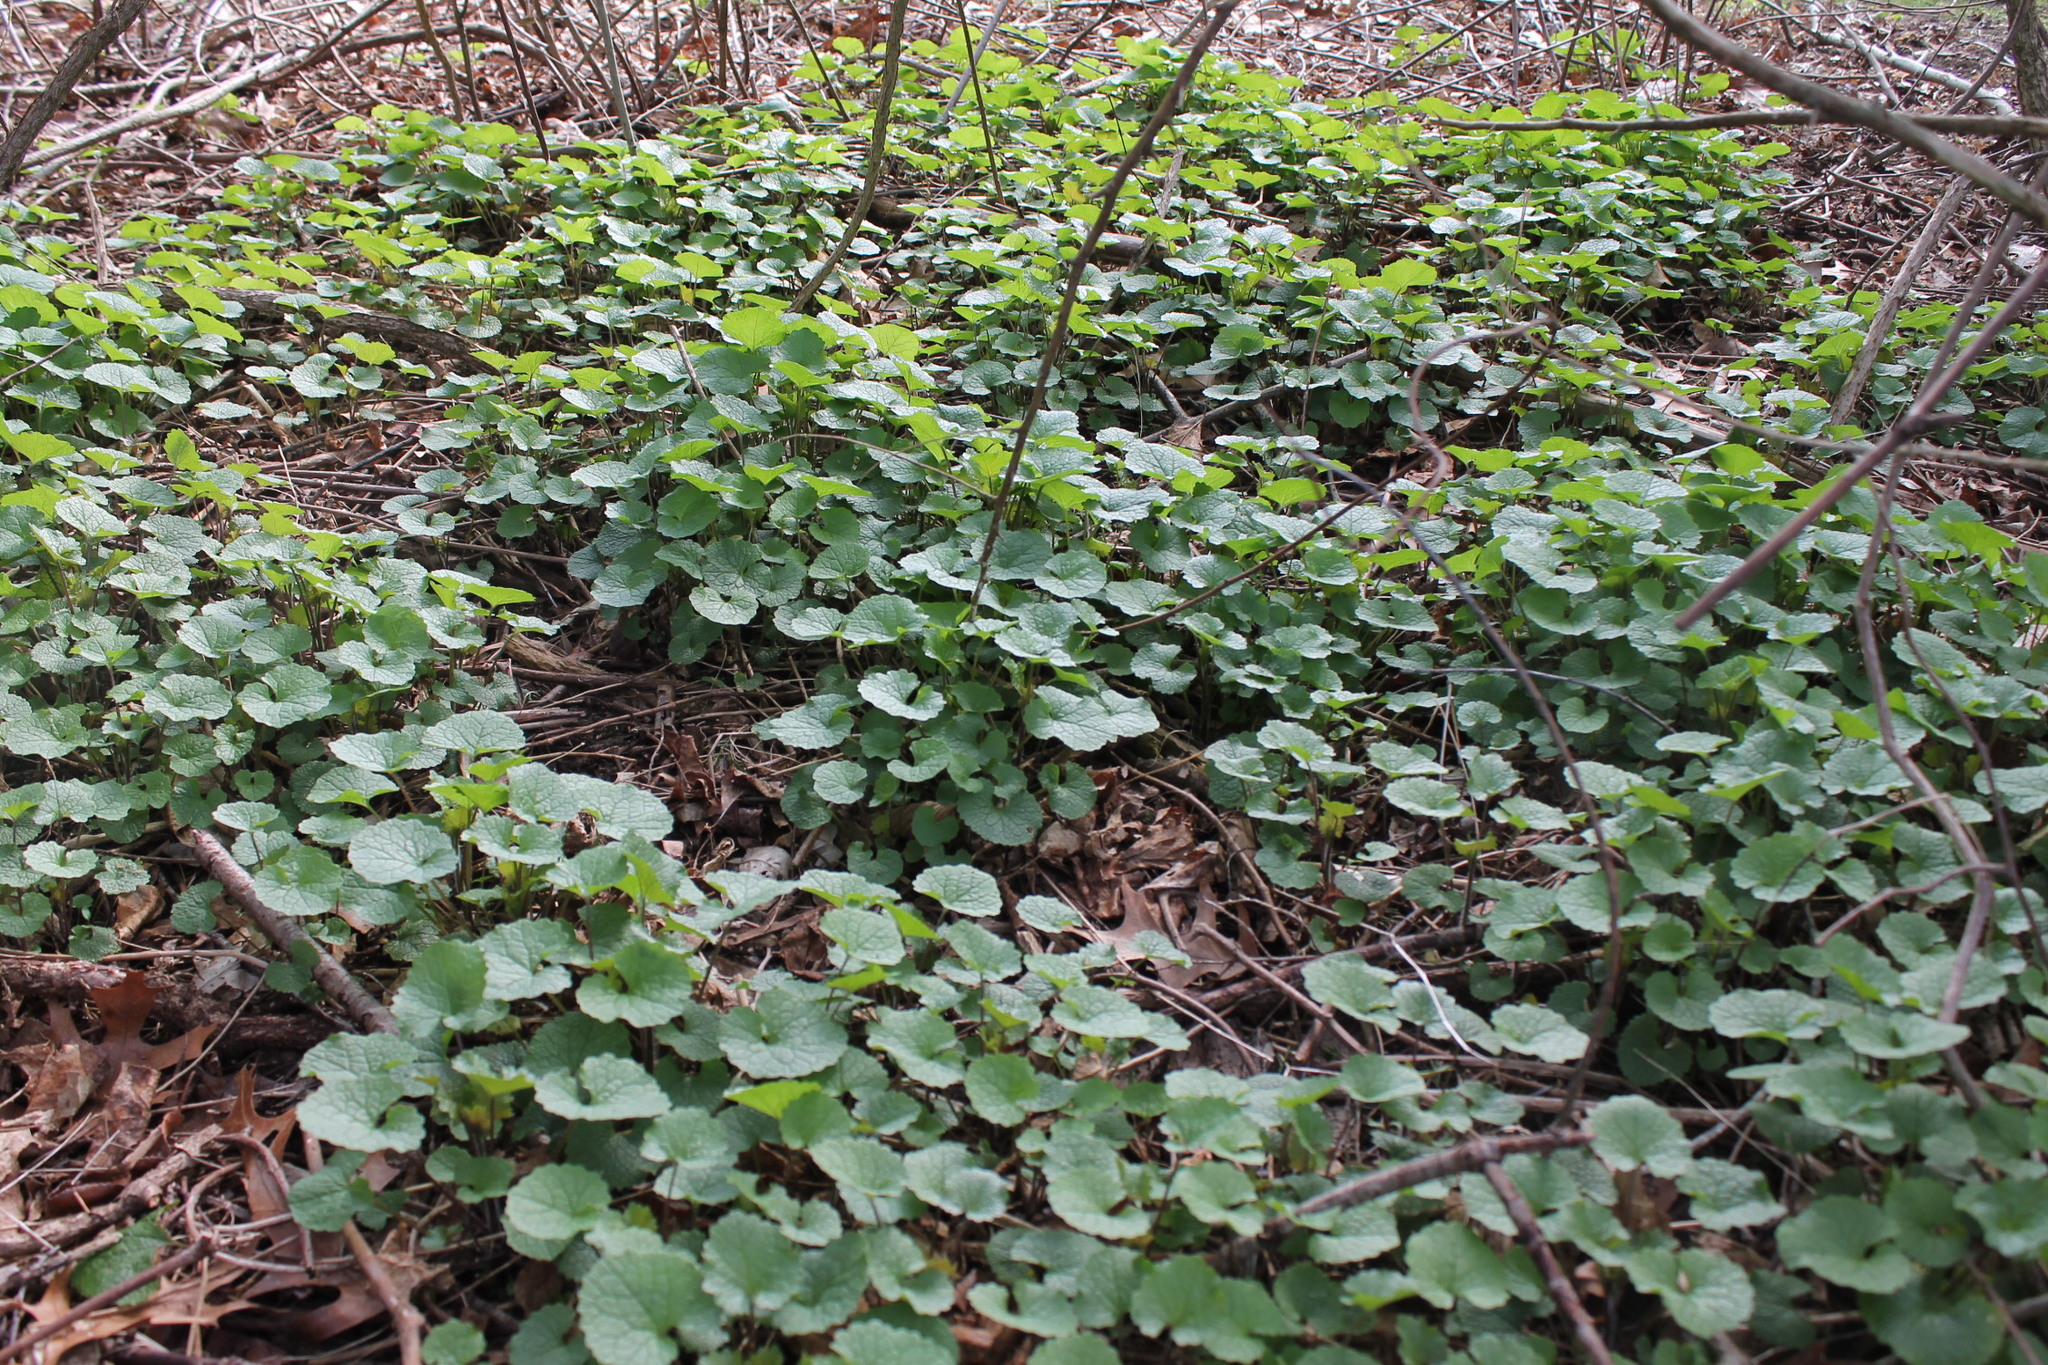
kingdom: Plantae
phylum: Tracheophyta
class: Magnoliopsida
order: Brassicales
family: Brassicaceae
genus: Alliaria
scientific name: Alliaria petiolata
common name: Garlic mustard
